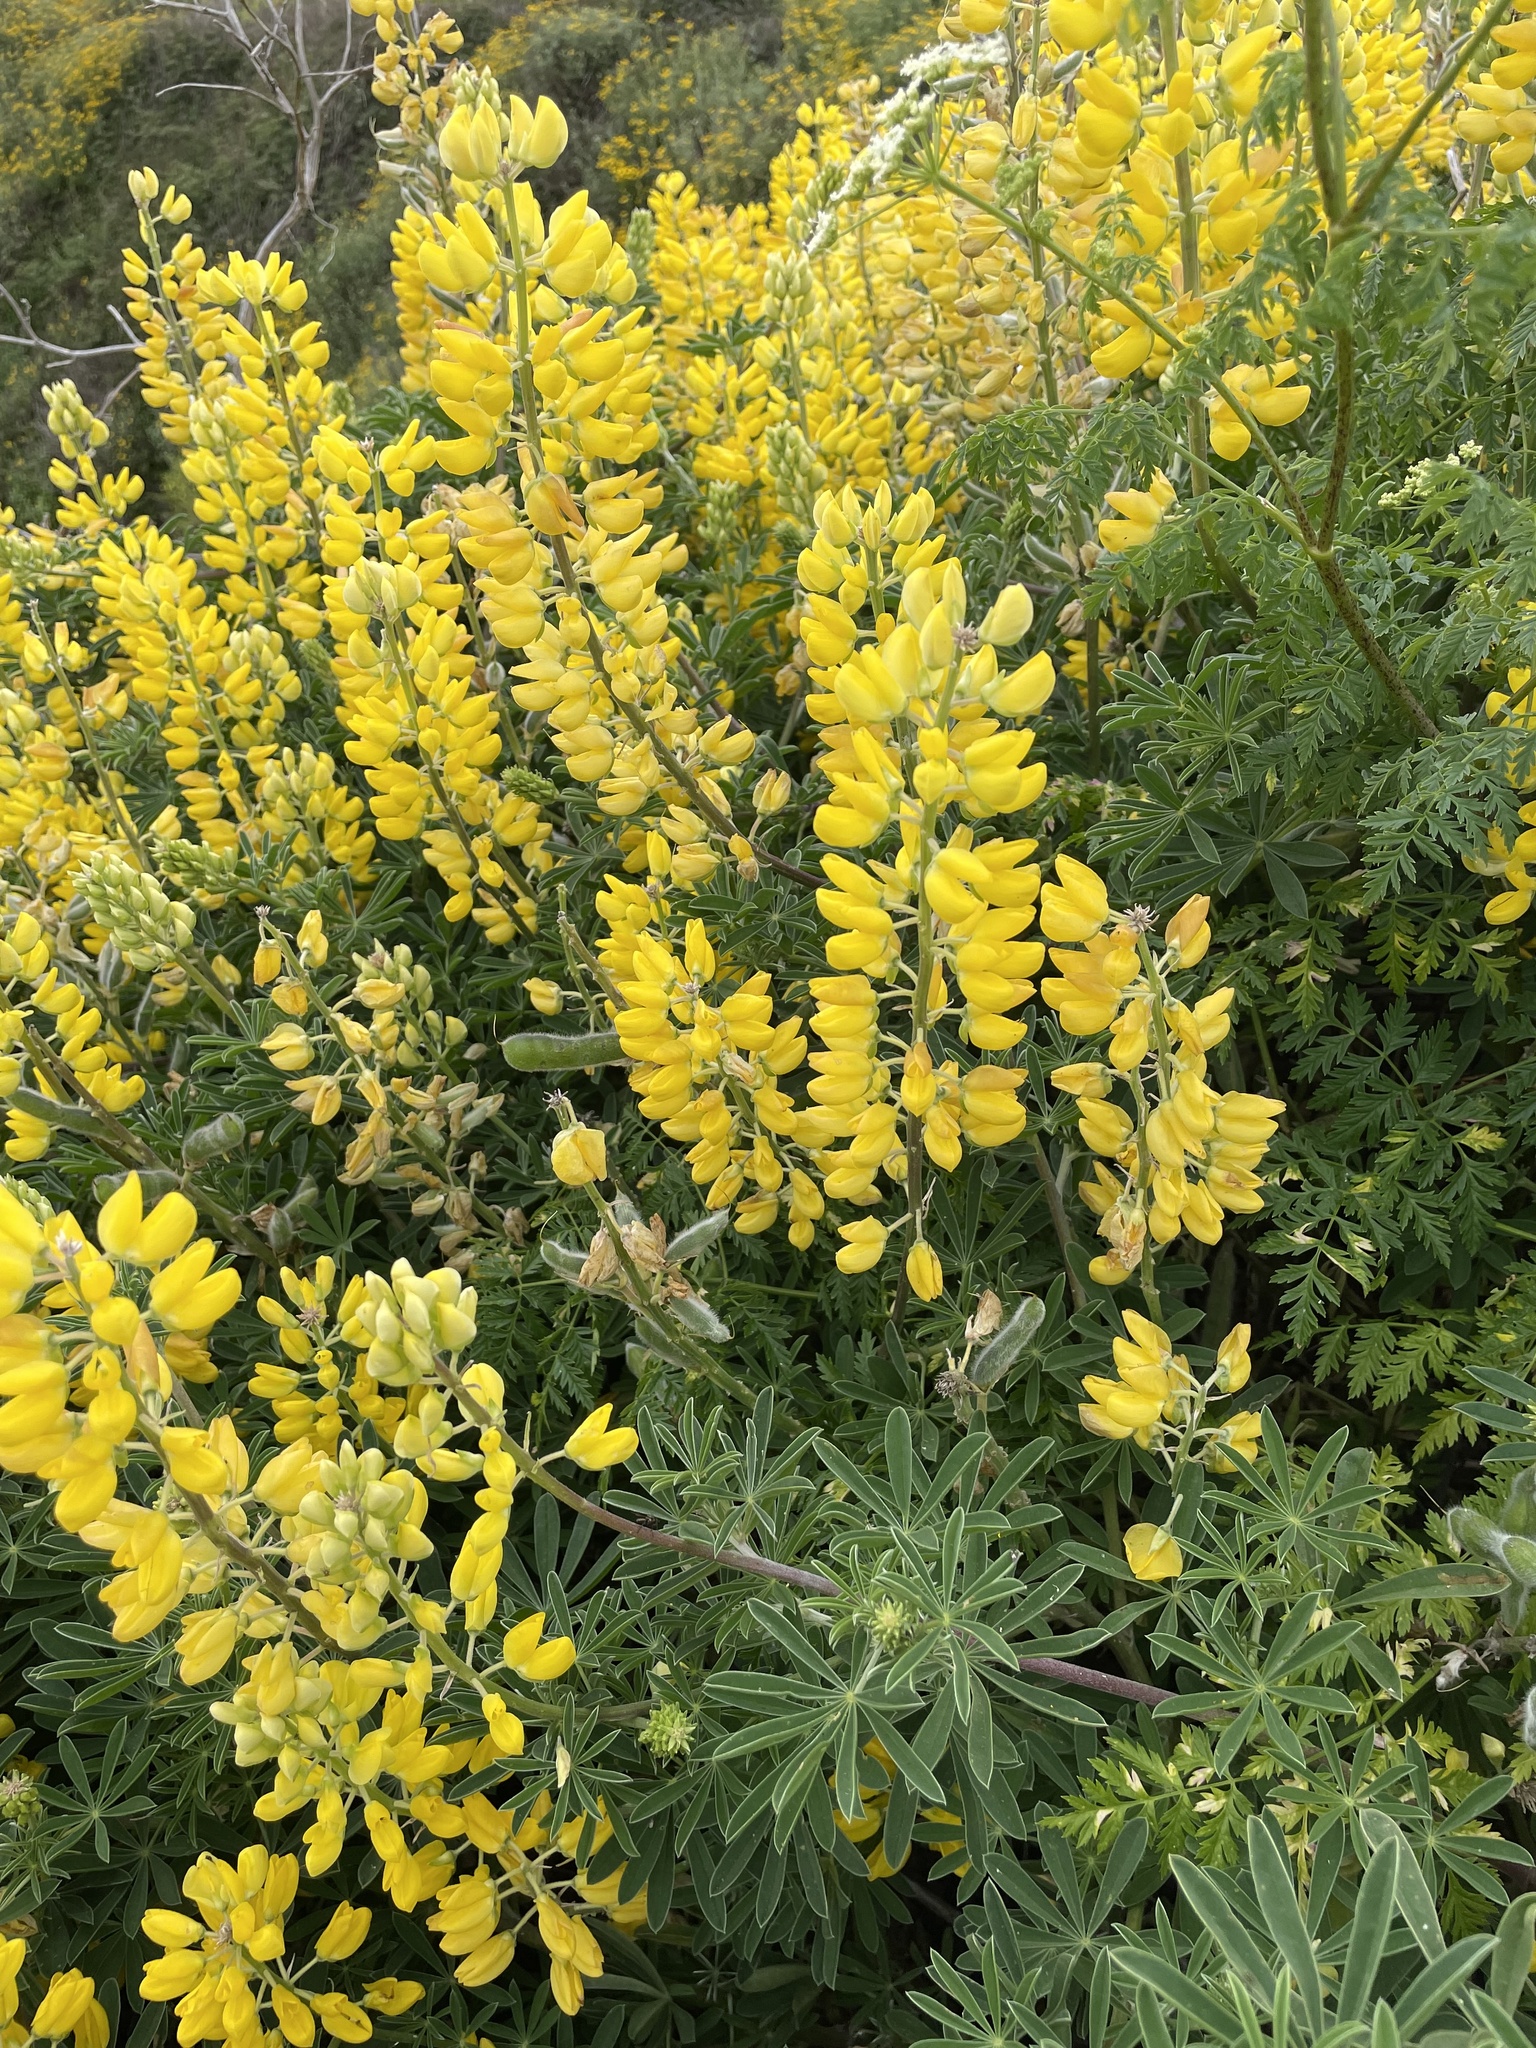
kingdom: Plantae
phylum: Tracheophyta
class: Magnoliopsida
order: Fabales
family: Fabaceae
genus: Lupinus
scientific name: Lupinus arboreus
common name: Yellow bush lupine
